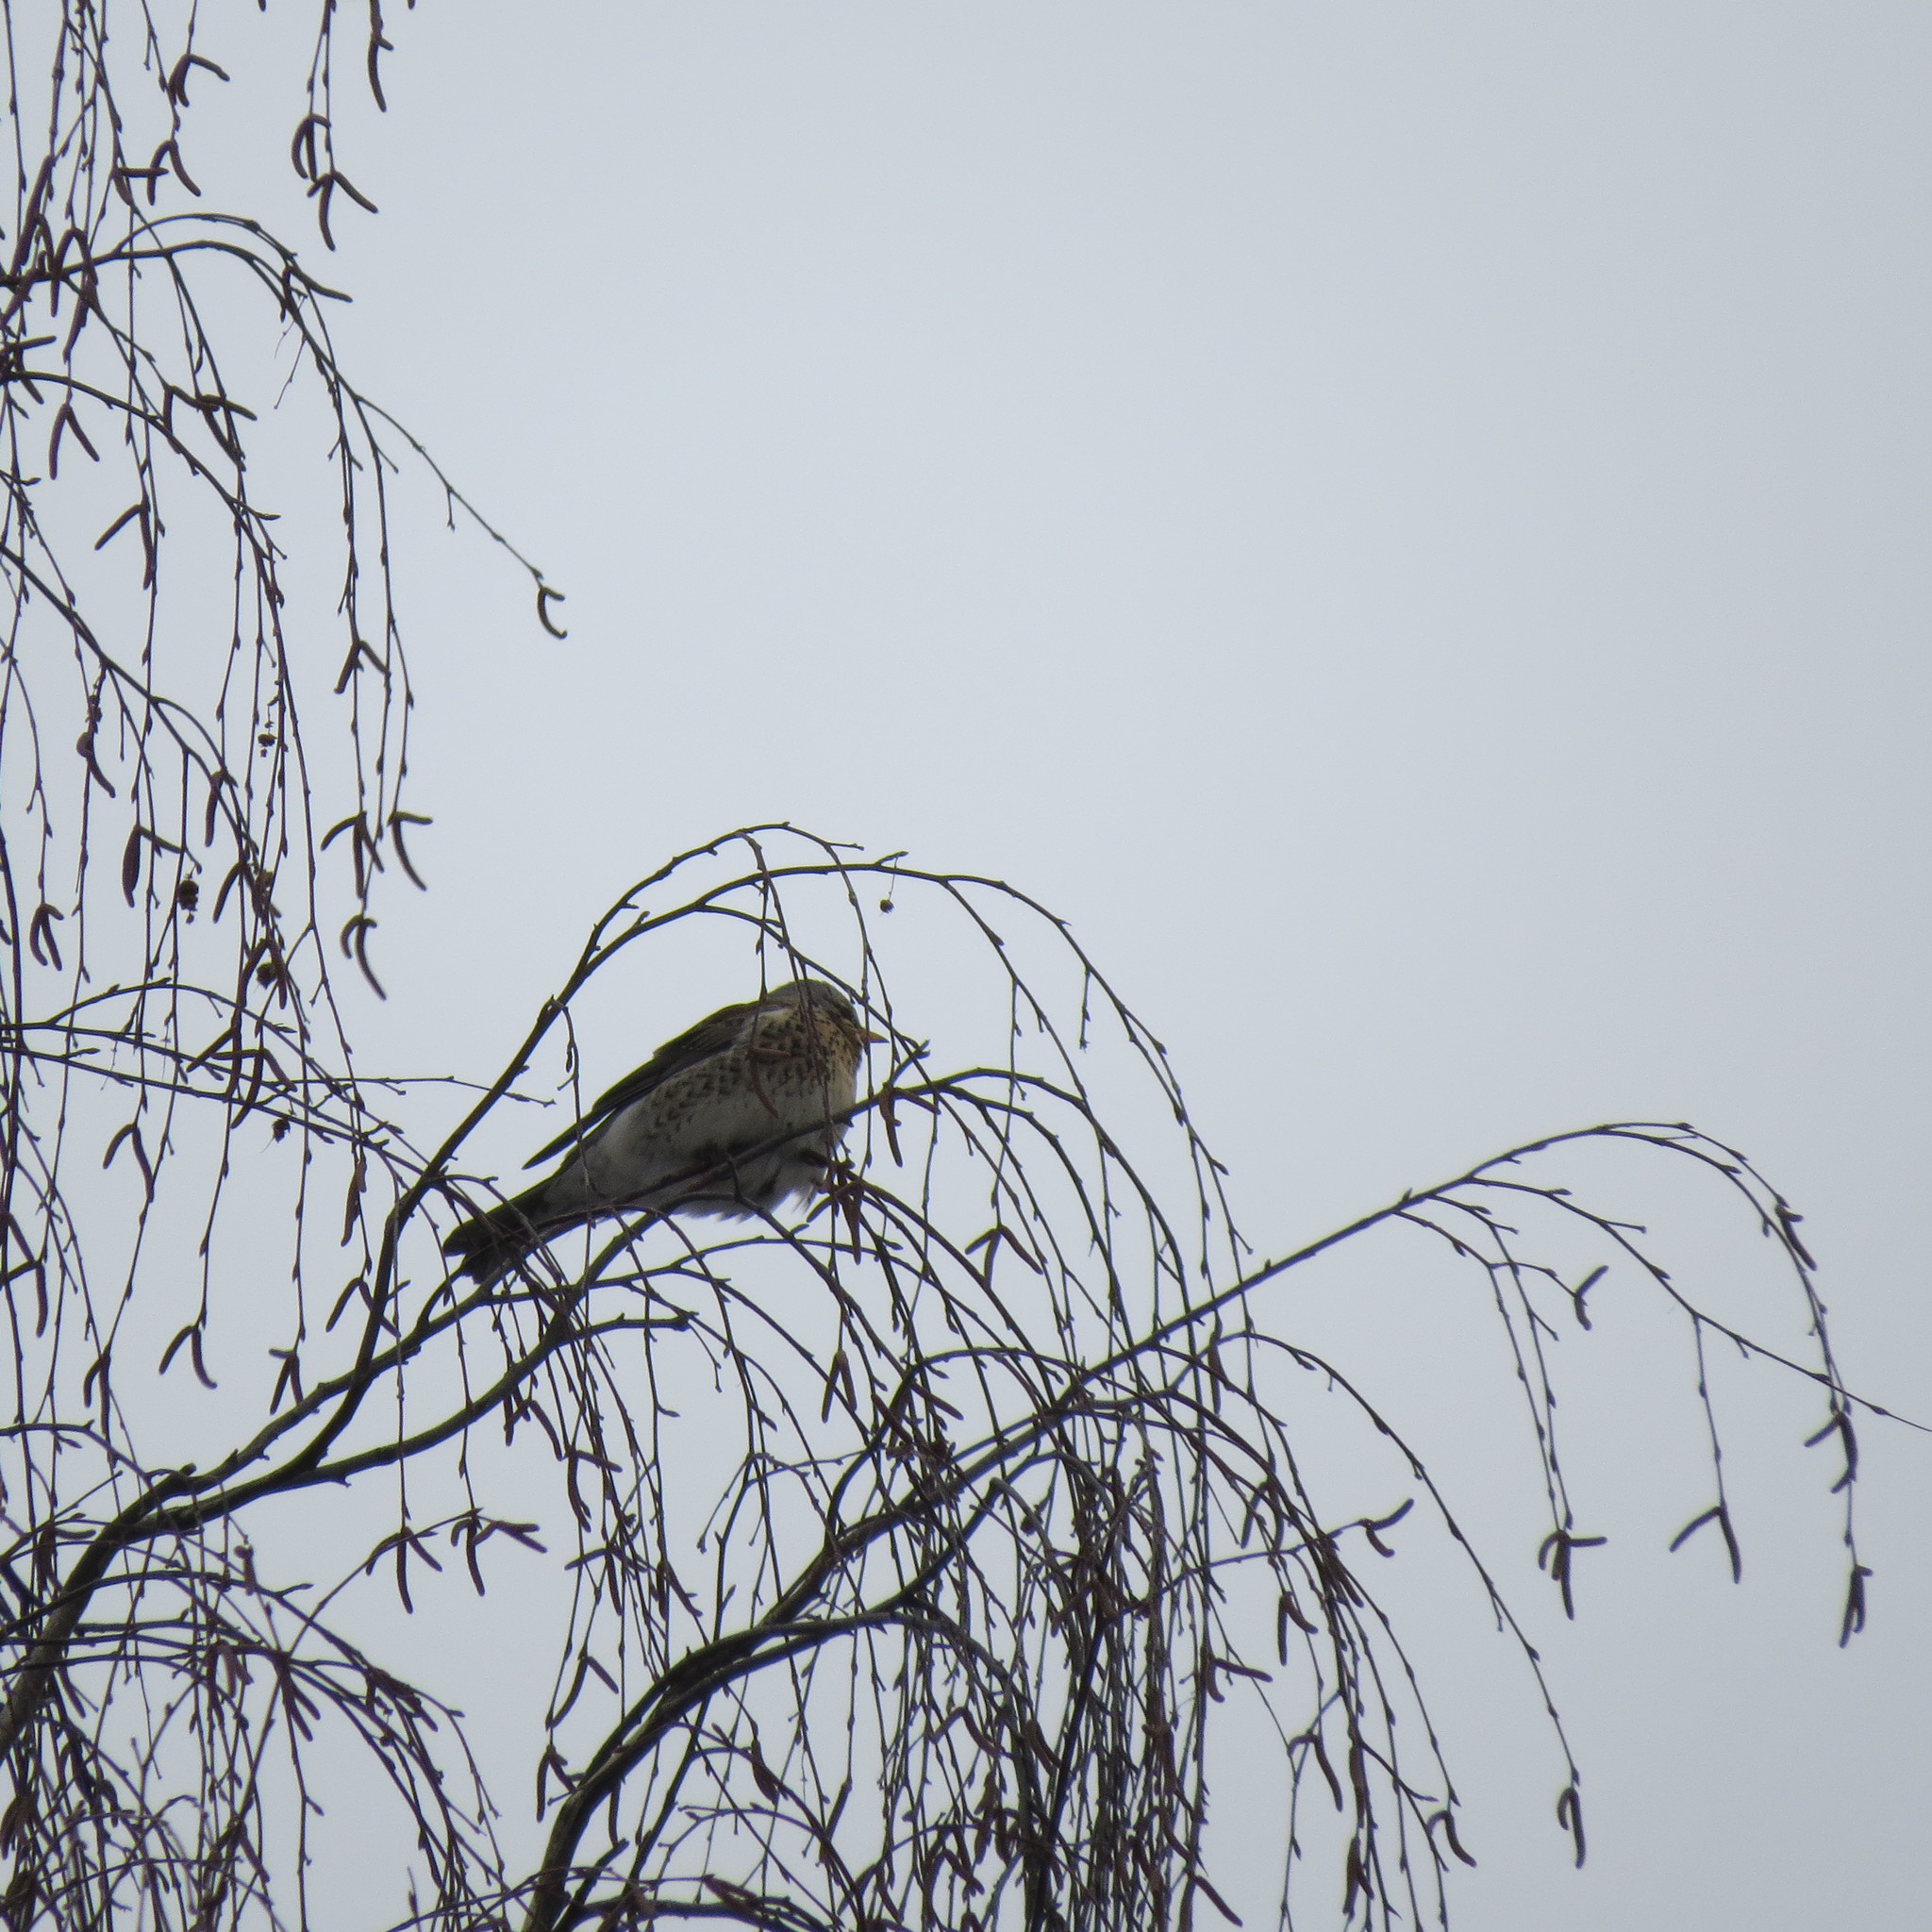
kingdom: Animalia
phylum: Chordata
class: Aves
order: Passeriformes
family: Turdidae
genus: Turdus
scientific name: Turdus pilaris
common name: Fieldfare
